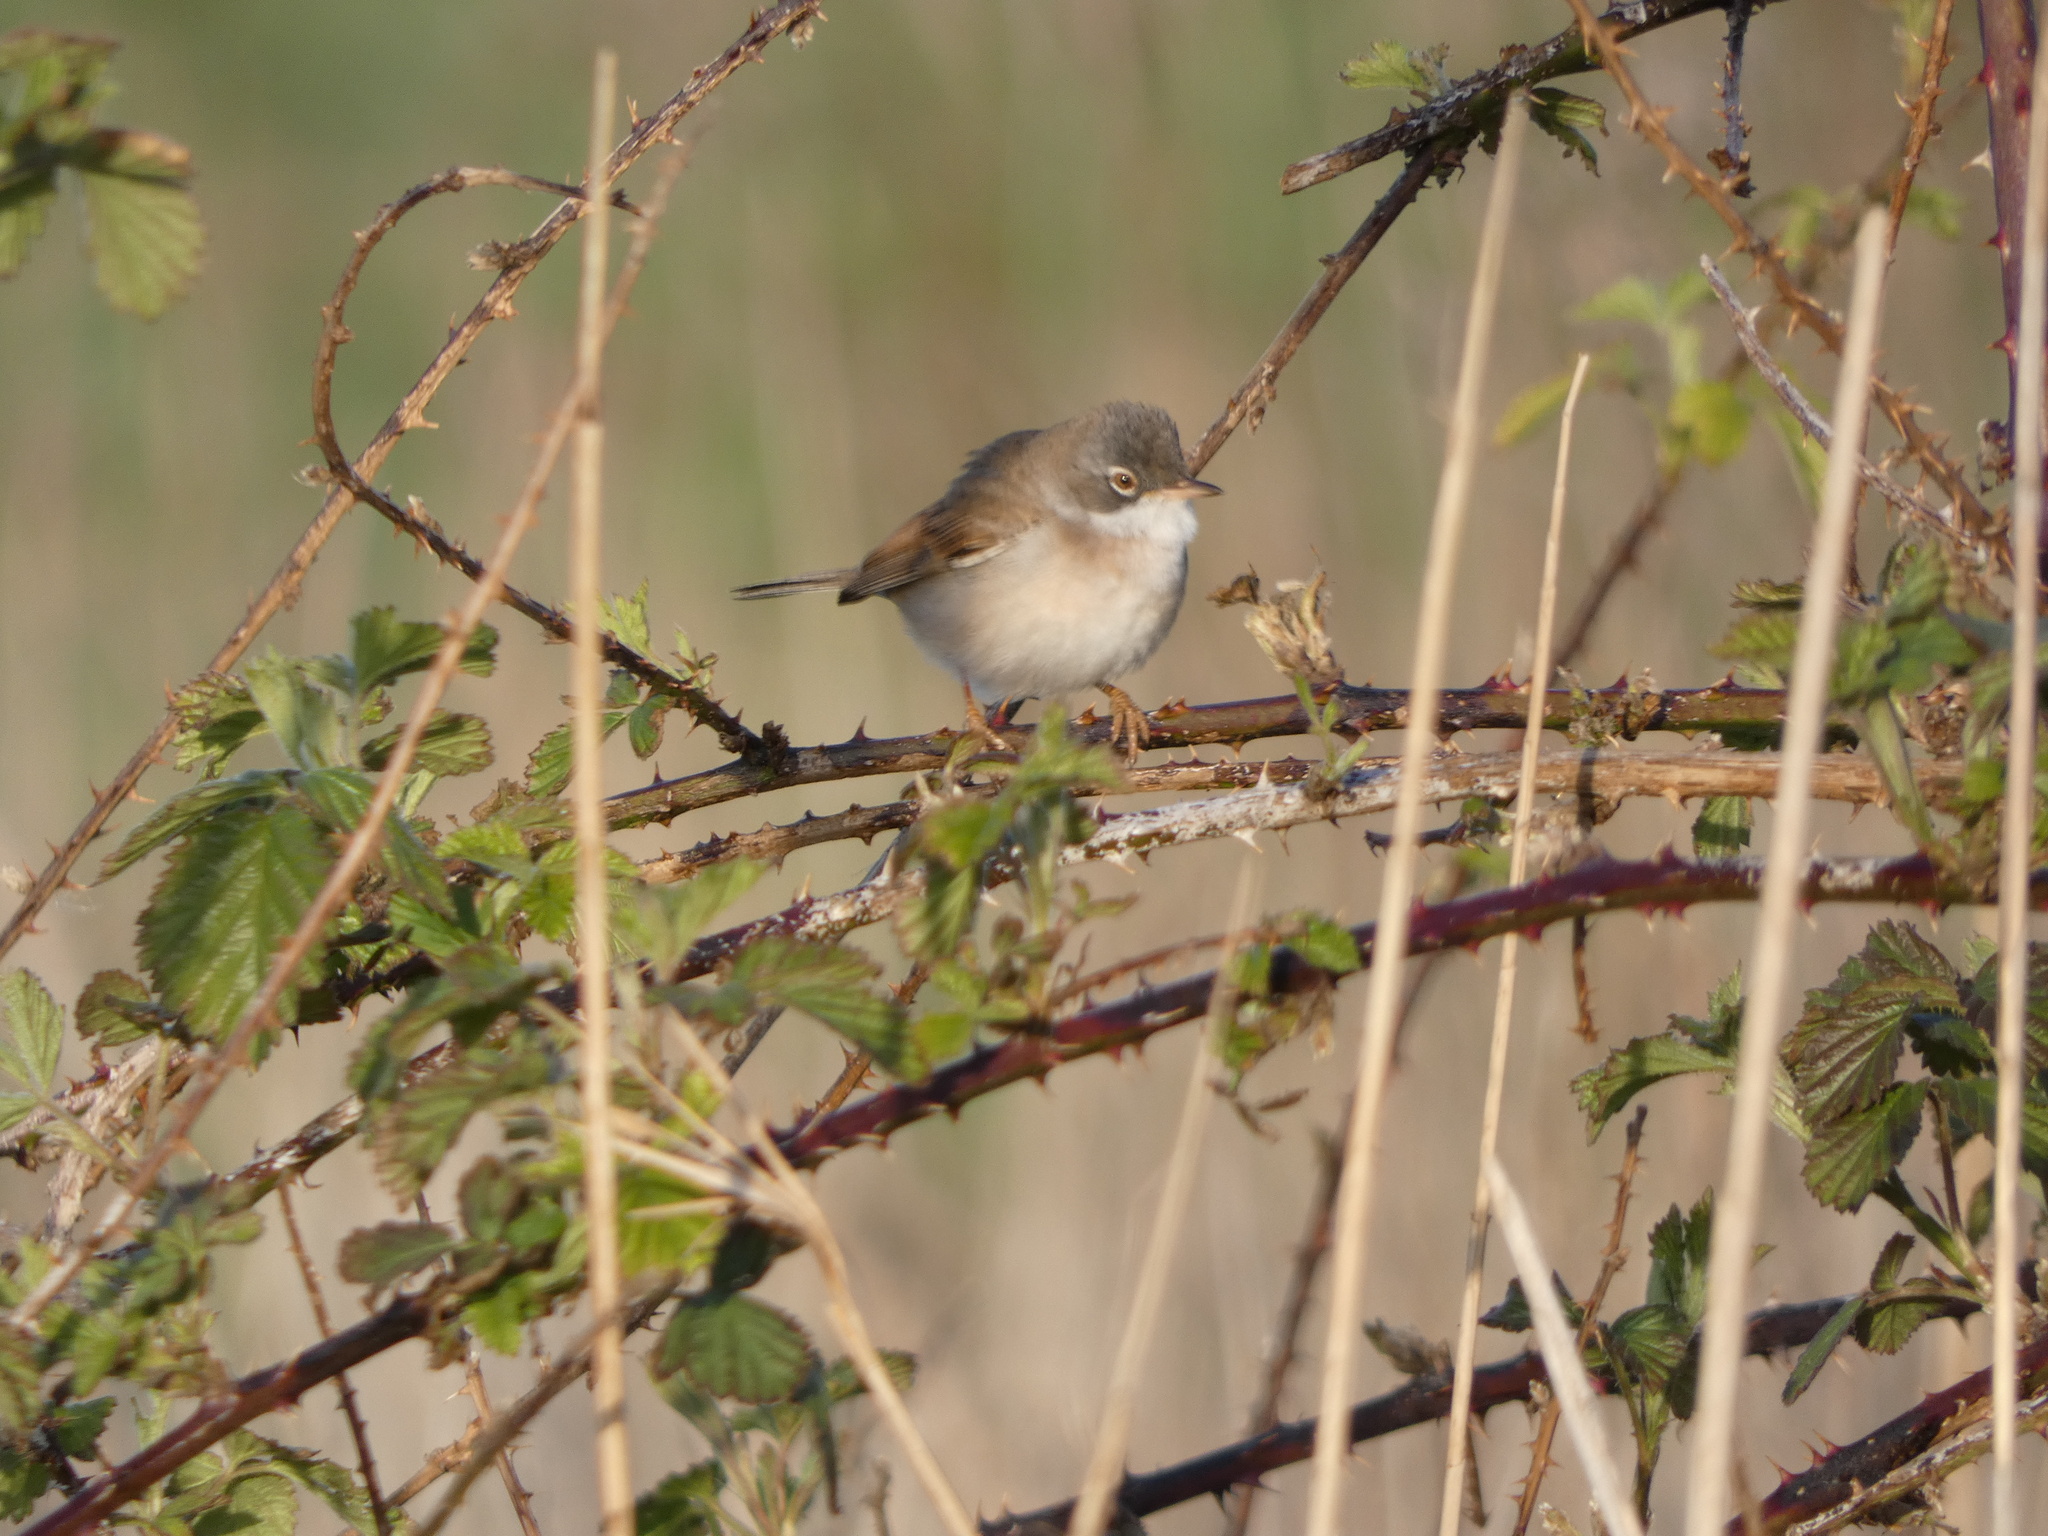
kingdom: Animalia
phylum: Chordata
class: Aves
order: Passeriformes
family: Sylviidae
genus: Sylvia
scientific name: Sylvia communis
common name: Common whitethroat
